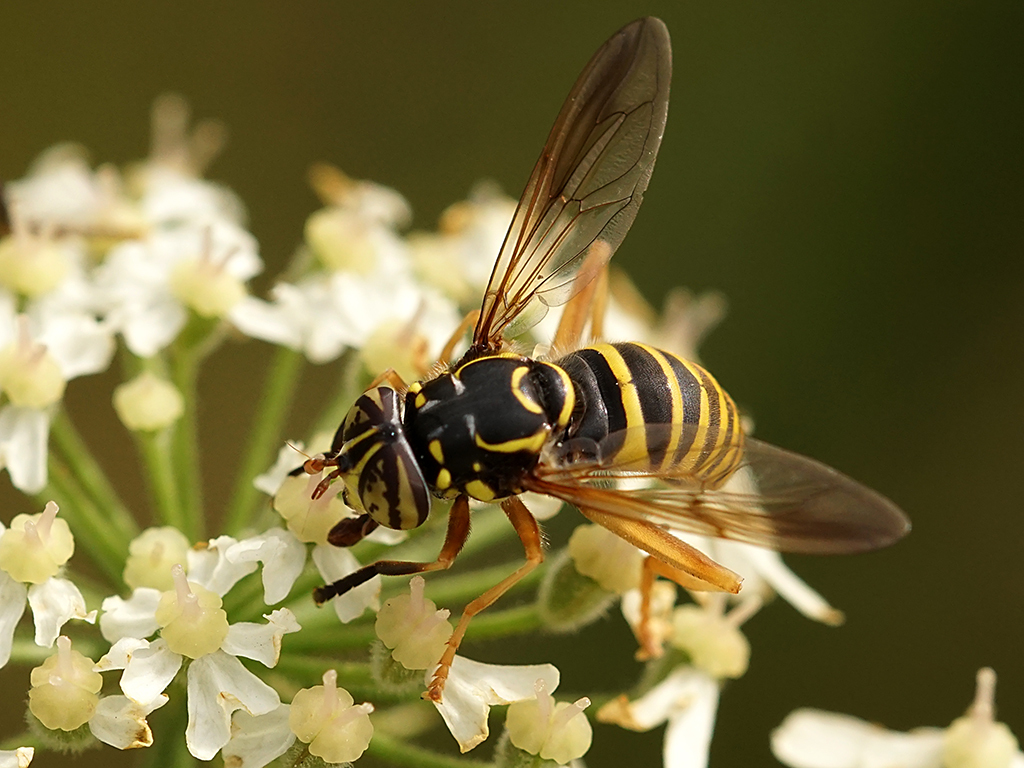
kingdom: Animalia
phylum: Arthropoda
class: Insecta
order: Diptera
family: Syrphidae
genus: Spilomyia
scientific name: Spilomyia manicata
